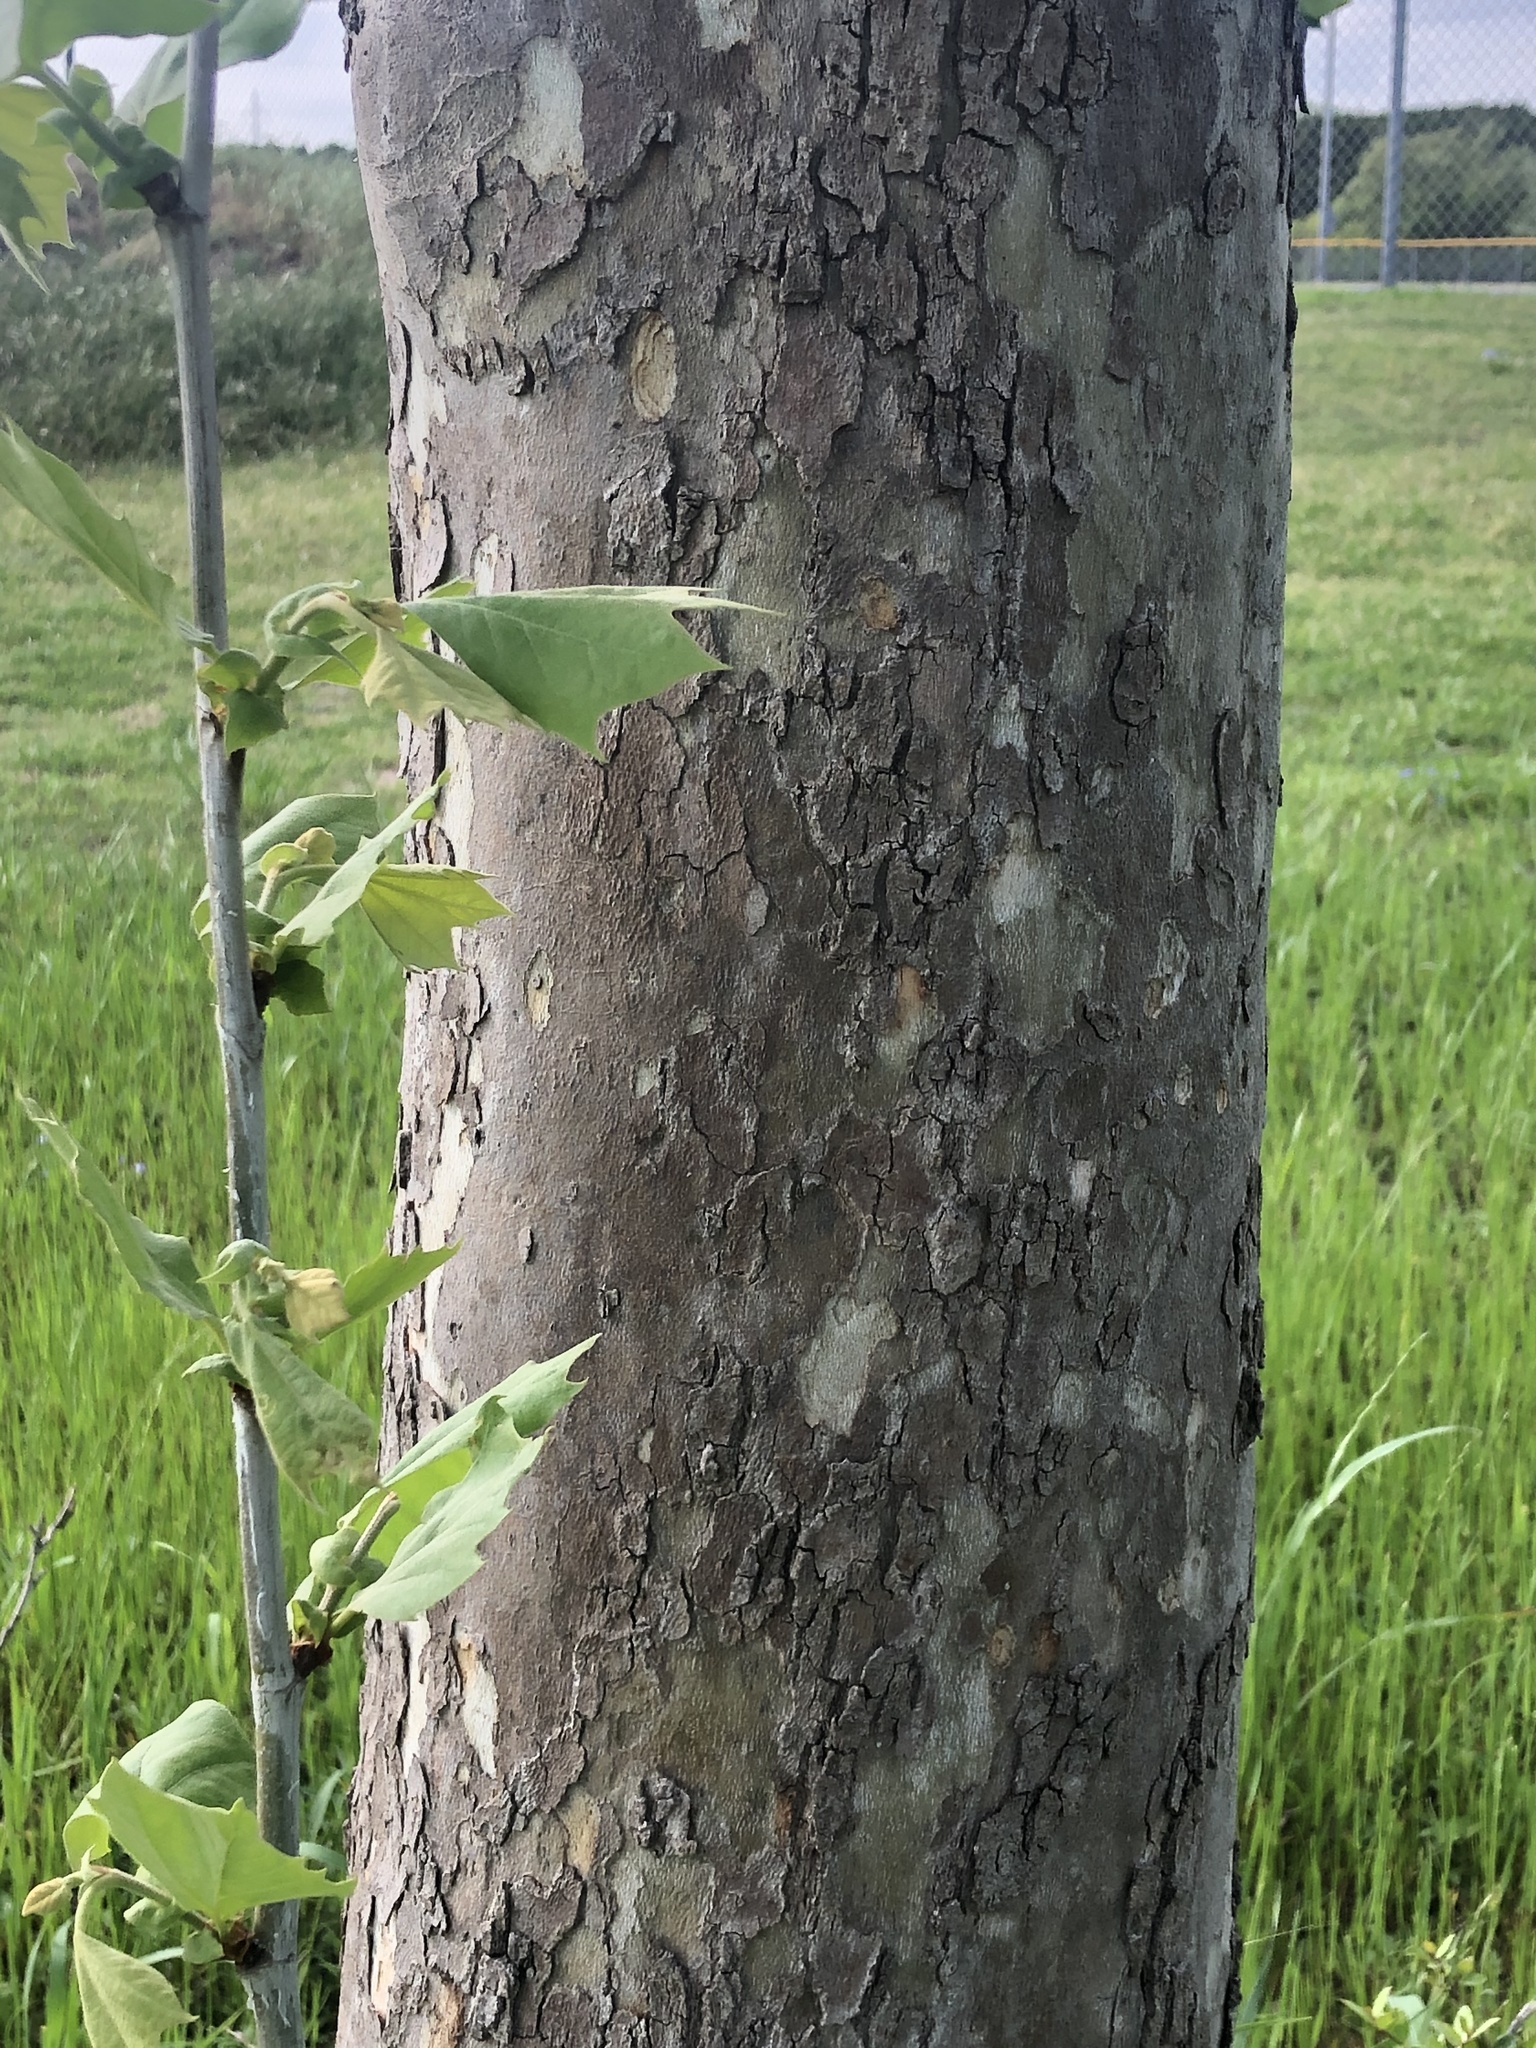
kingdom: Plantae
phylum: Tracheophyta
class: Magnoliopsida
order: Proteales
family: Platanaceae
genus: Platanus
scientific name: Platanus occidentalis
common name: American sycamore
